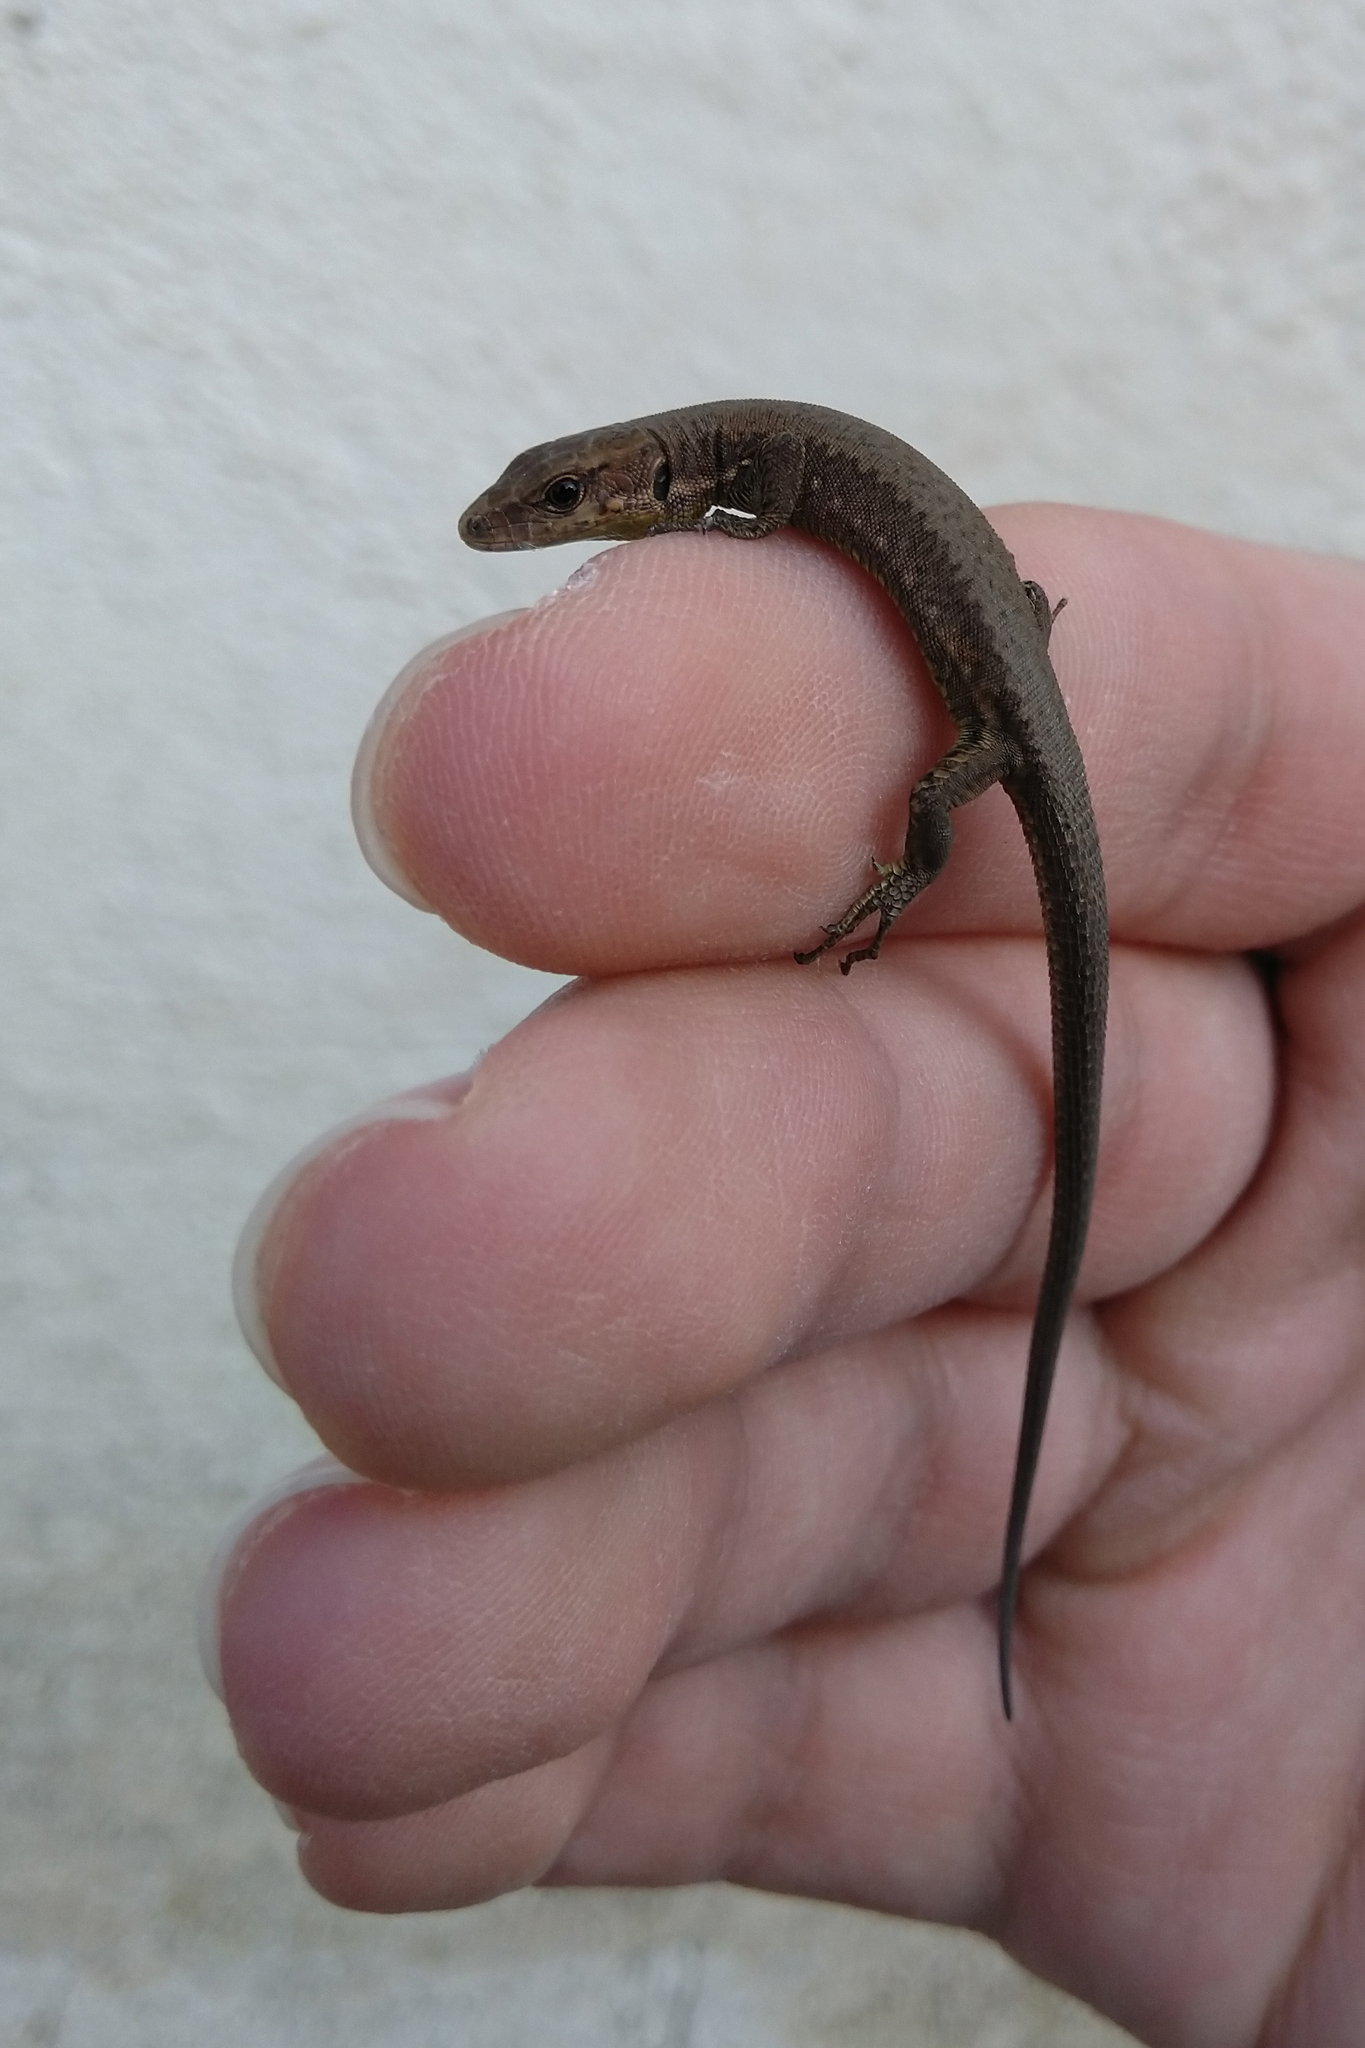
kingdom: Animalia
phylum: Chordata
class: Squamata
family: Lacertidae
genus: Darevskia
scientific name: Darevskia chlorogaster
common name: Green-bellied lizard
